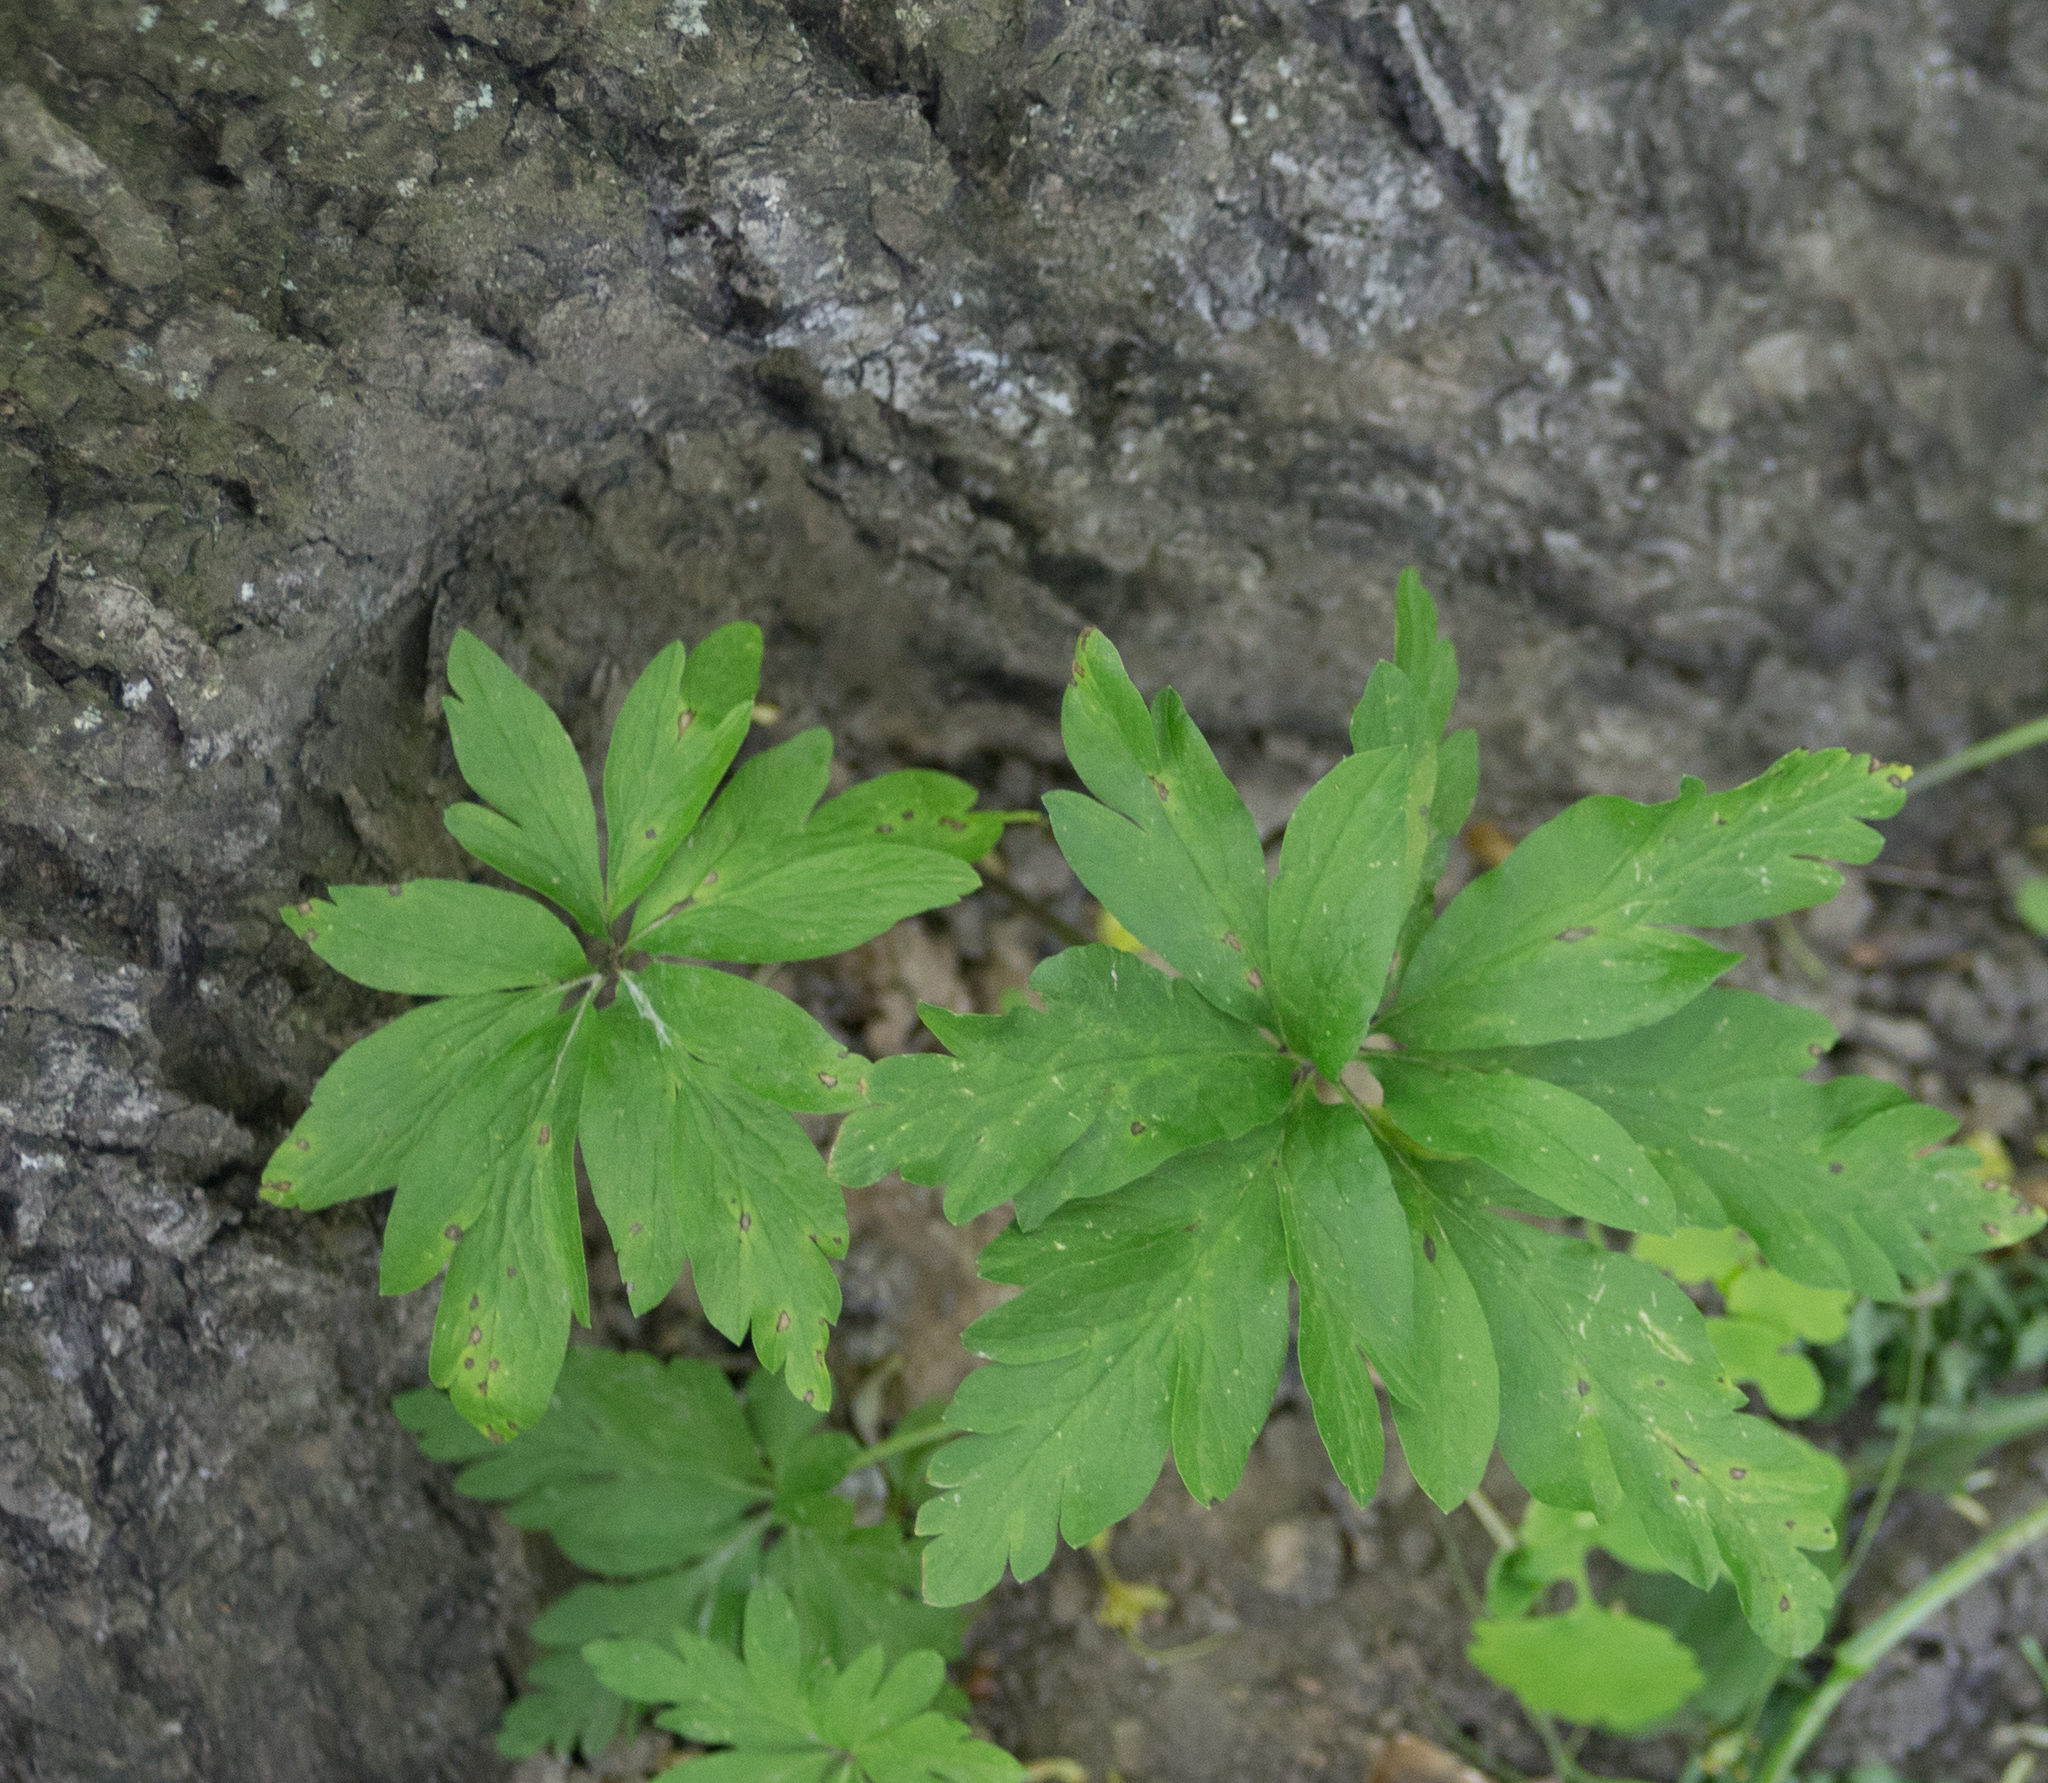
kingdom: Plantae
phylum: Tracheophyta
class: Magnoliopsida
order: Ranunculales
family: Ranunculaceae
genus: Anemone
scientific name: Anemone ranunculoides
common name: Yellow anemone
